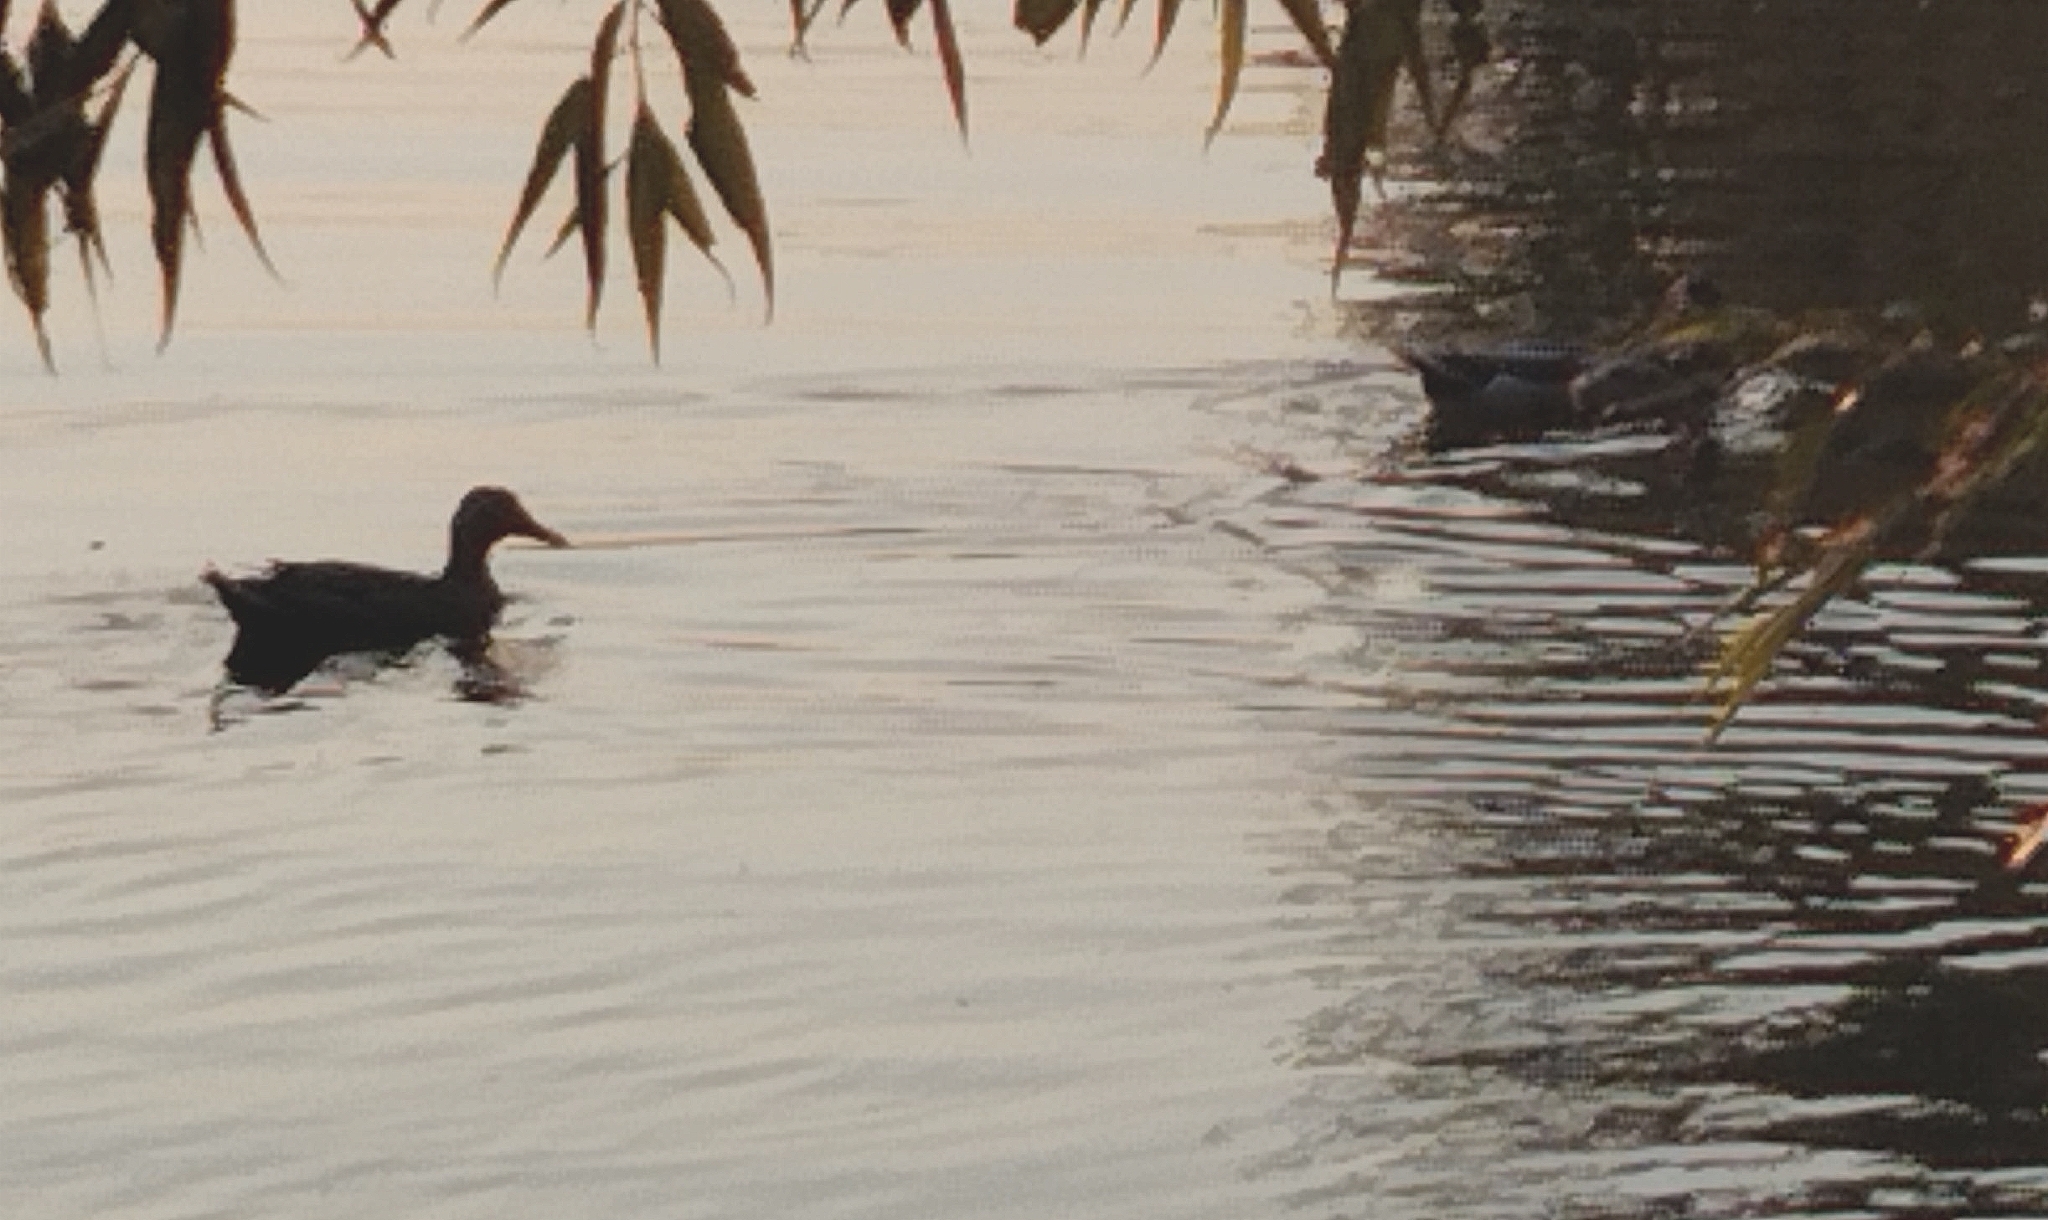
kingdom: Animalia
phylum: Chordata
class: Aves
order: Anseriformes
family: Anatidae
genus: Anas
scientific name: Anas platyrhynchos
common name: Mallard
